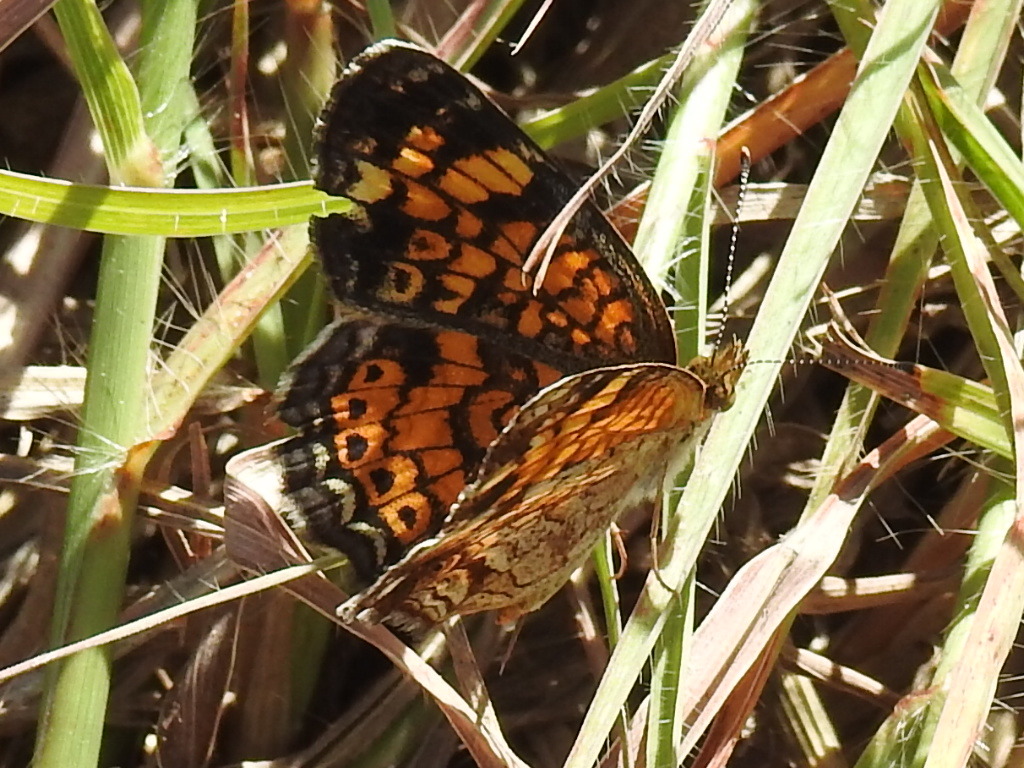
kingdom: Animalia
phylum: Arthropoda
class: Insecta
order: Lepidoptera
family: Nymphalidae
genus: Phyciodes
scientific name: Phyciodes tharos
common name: Pearl crescent
